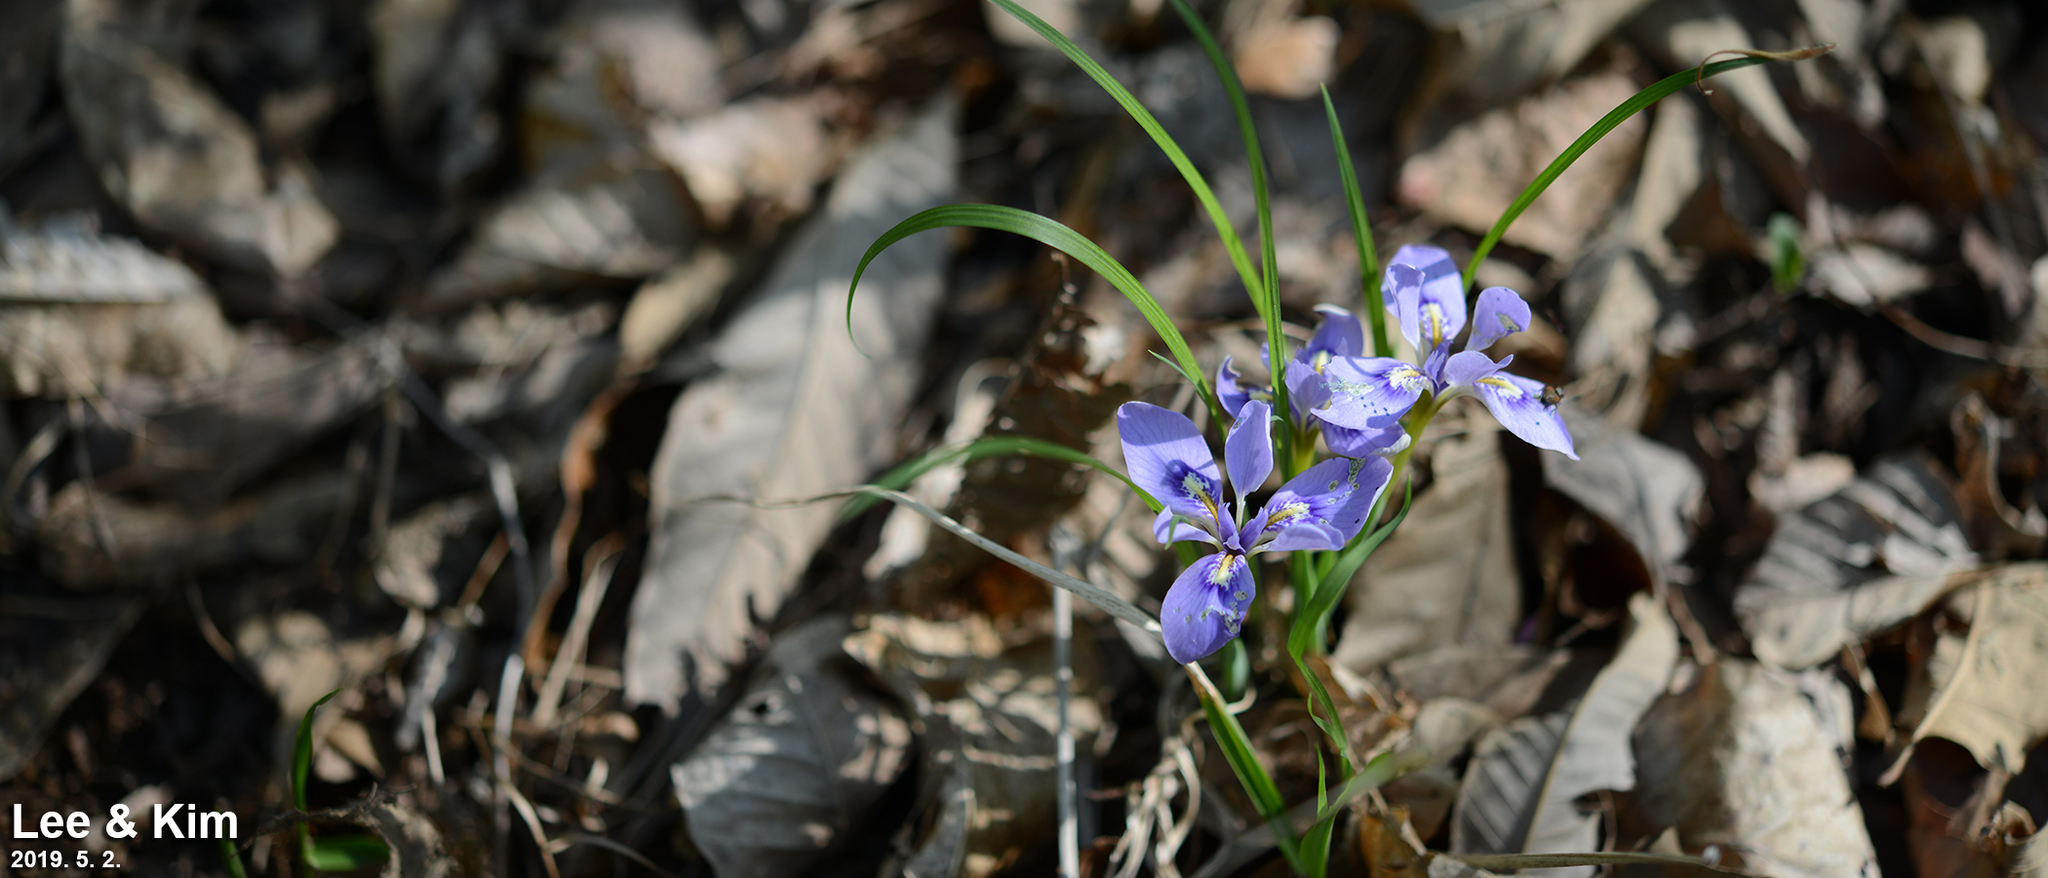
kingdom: Plantae
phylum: Tracheophyta
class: Liliopsida
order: Asparagales
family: Iridaceae
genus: Iris
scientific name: Iris rossii
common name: Long-tail iris
